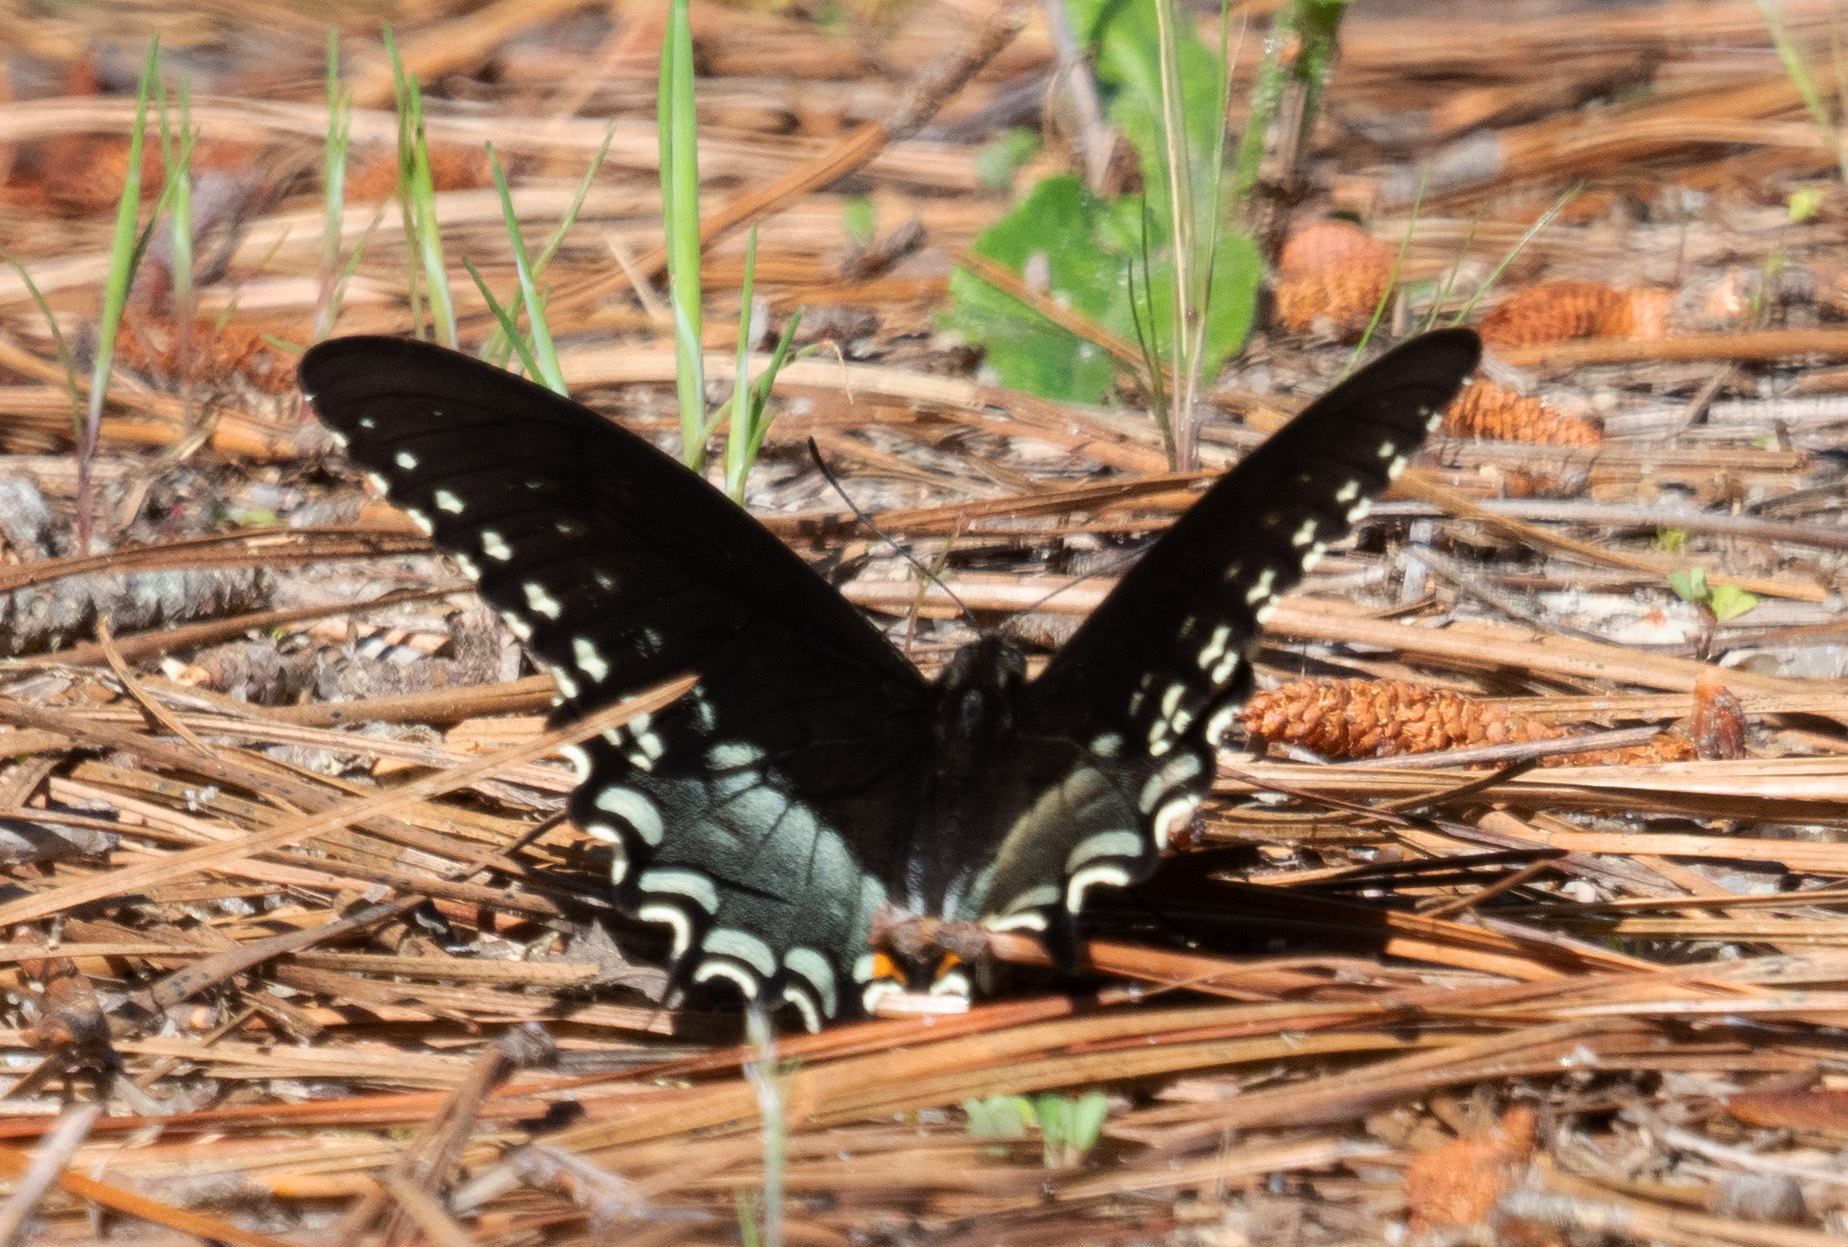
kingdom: Animalia
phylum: Arthropoda
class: Insecta
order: Lepidoptera
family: Papilionidae
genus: Papilio
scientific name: Papilio troilus
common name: Spicebush swallowtail
